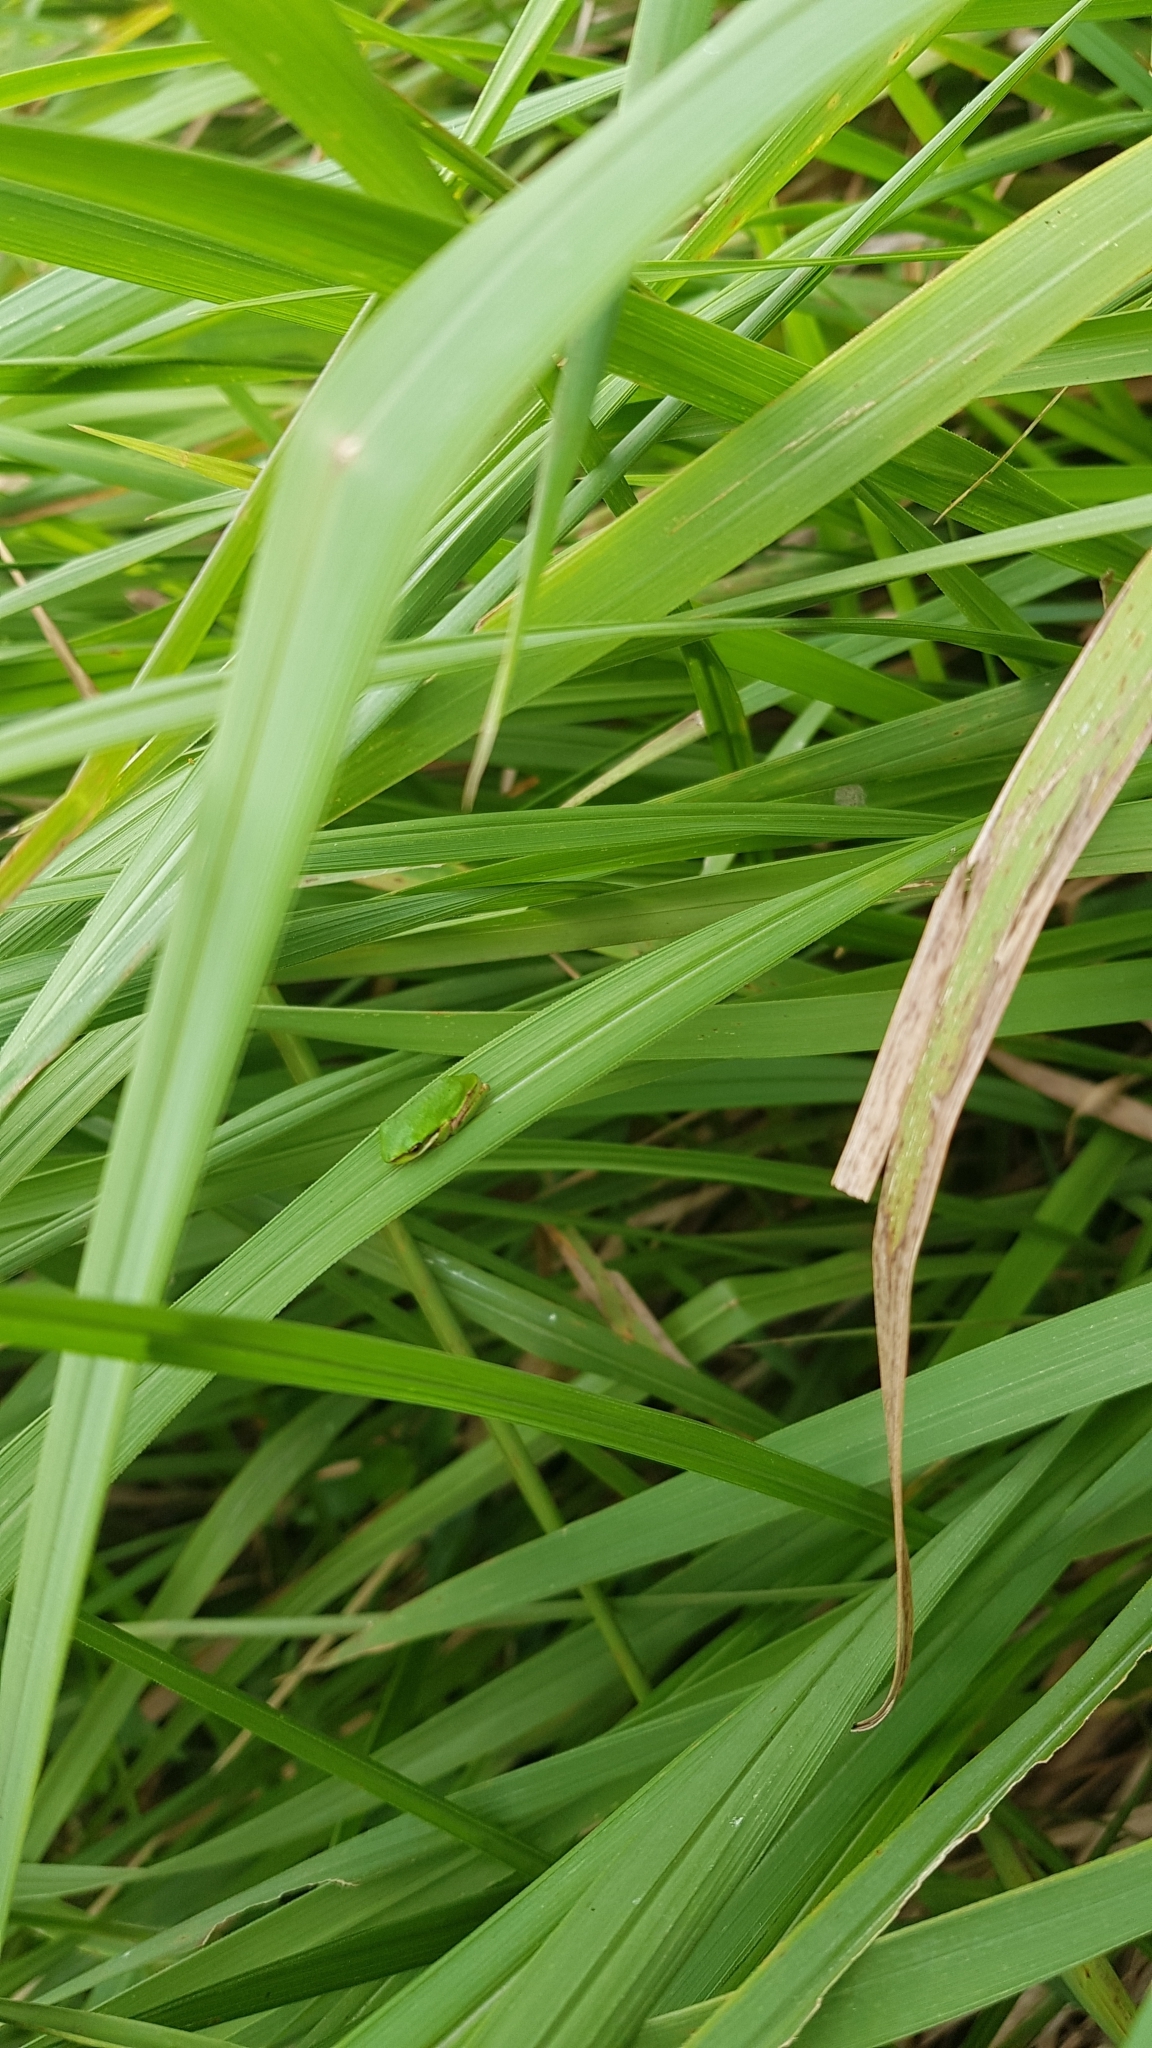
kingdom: Animalia
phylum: Chordata
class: Amphibia
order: Anura
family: Pelodryadidae
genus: Litoria
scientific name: Litoria fallax
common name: Eastern dwarf treefrog
